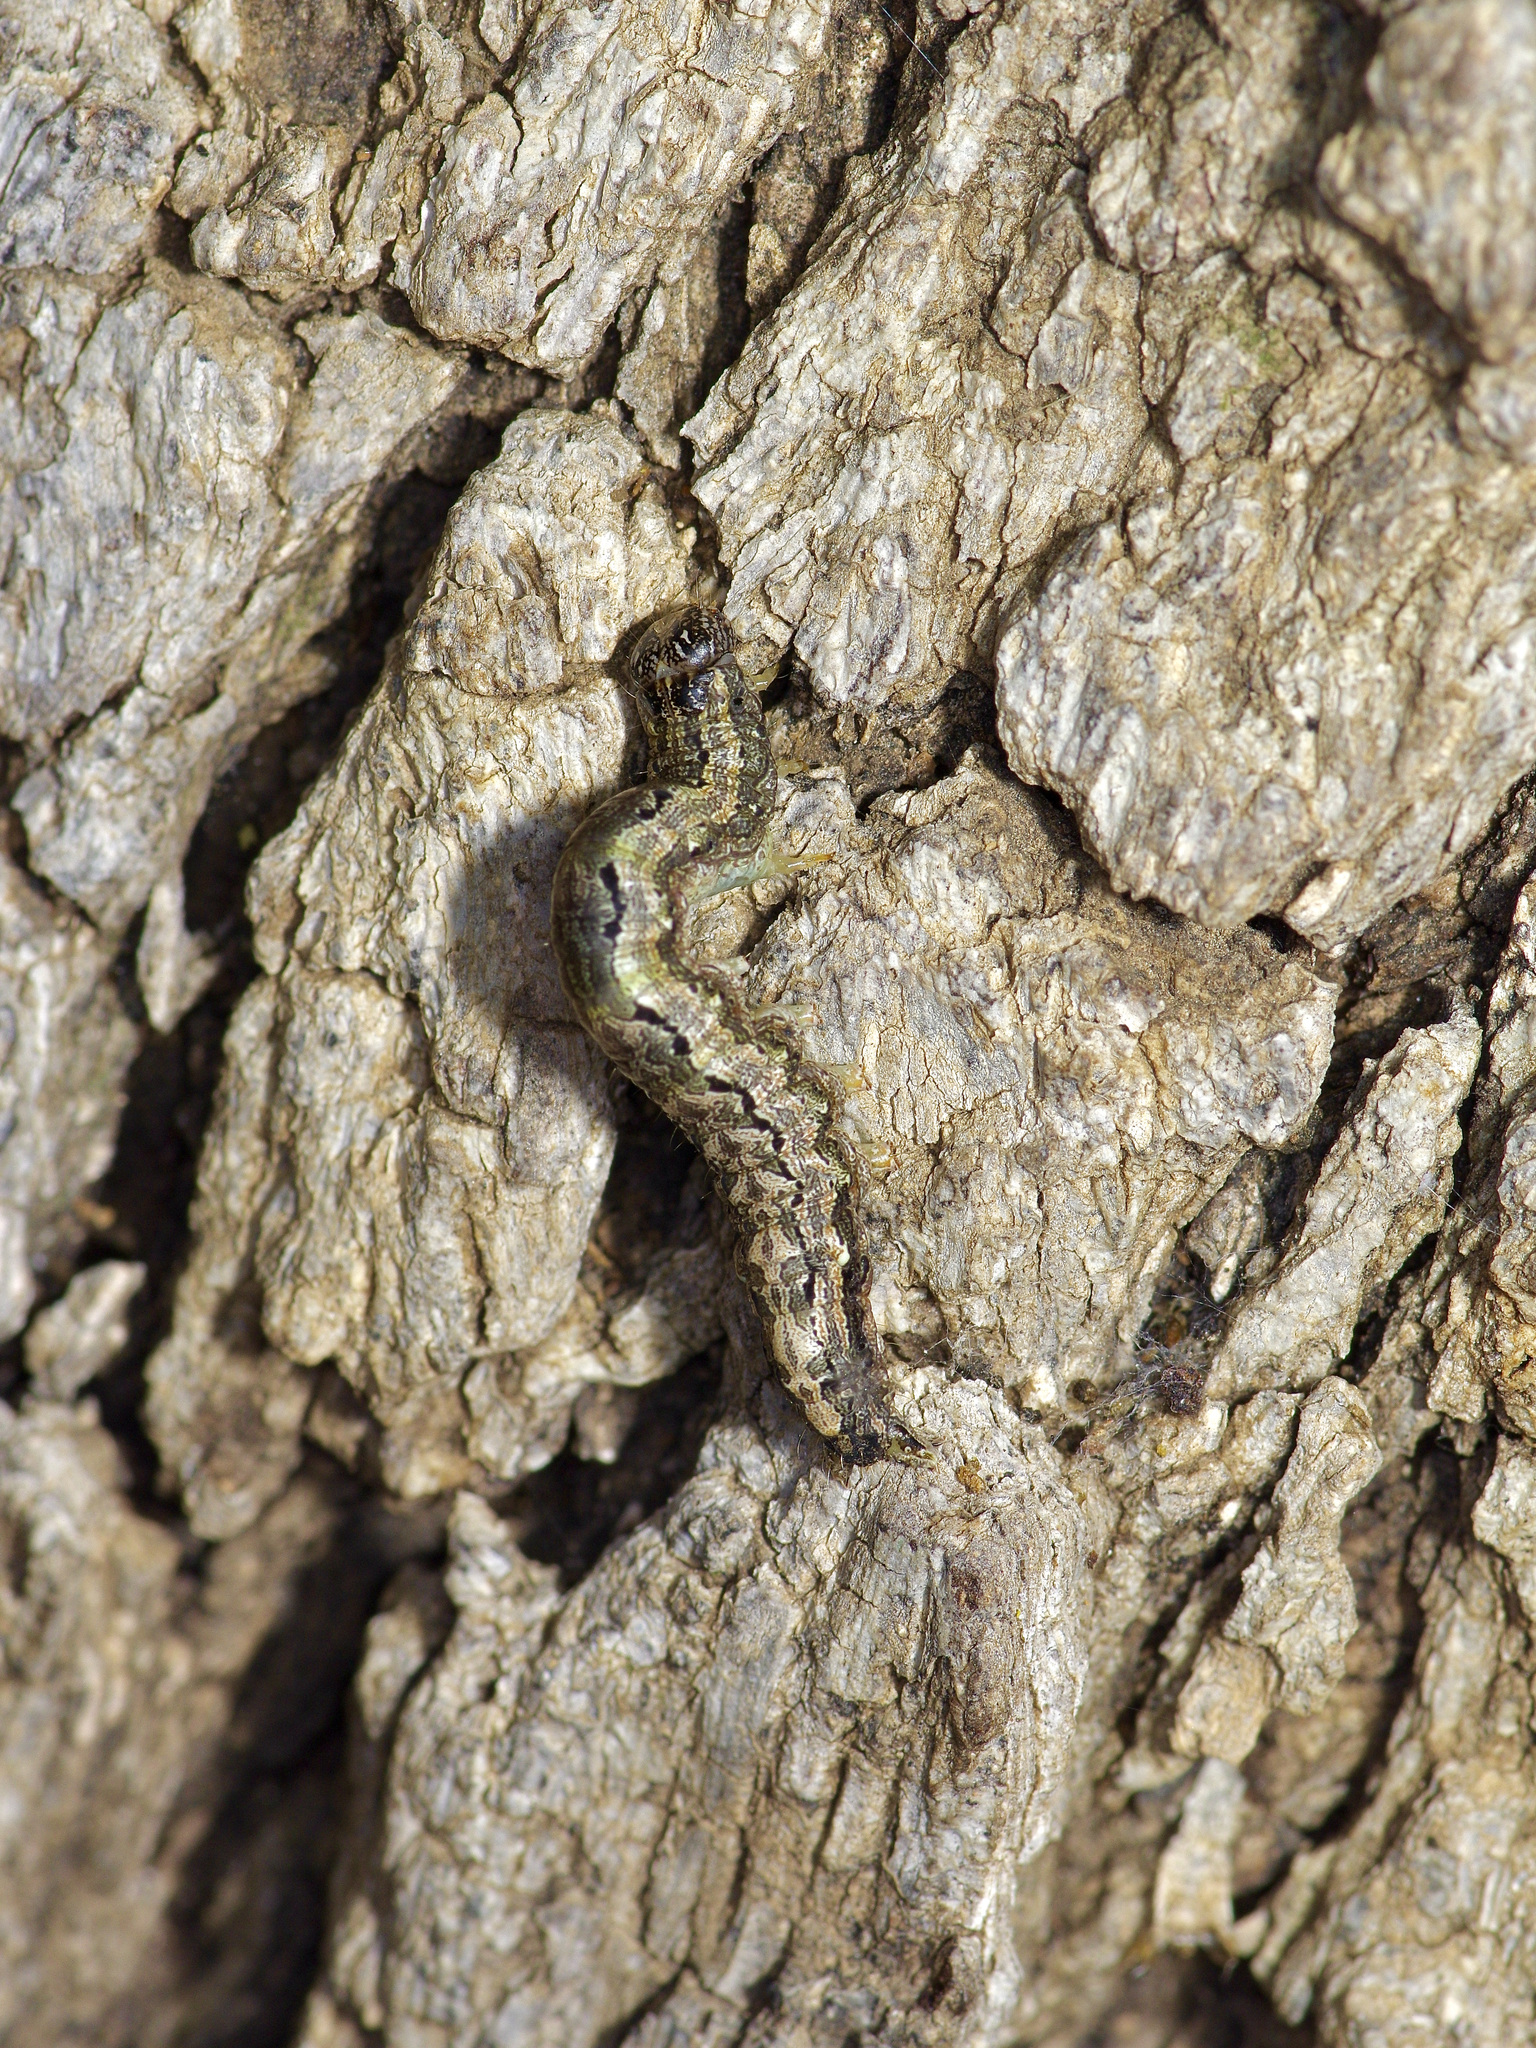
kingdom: Animalia
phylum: Arthropoda
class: Insecta
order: Lepidoptera
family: Erebidae
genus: Phoberia
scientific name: Phoberia atomaris
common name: Common oak moth
